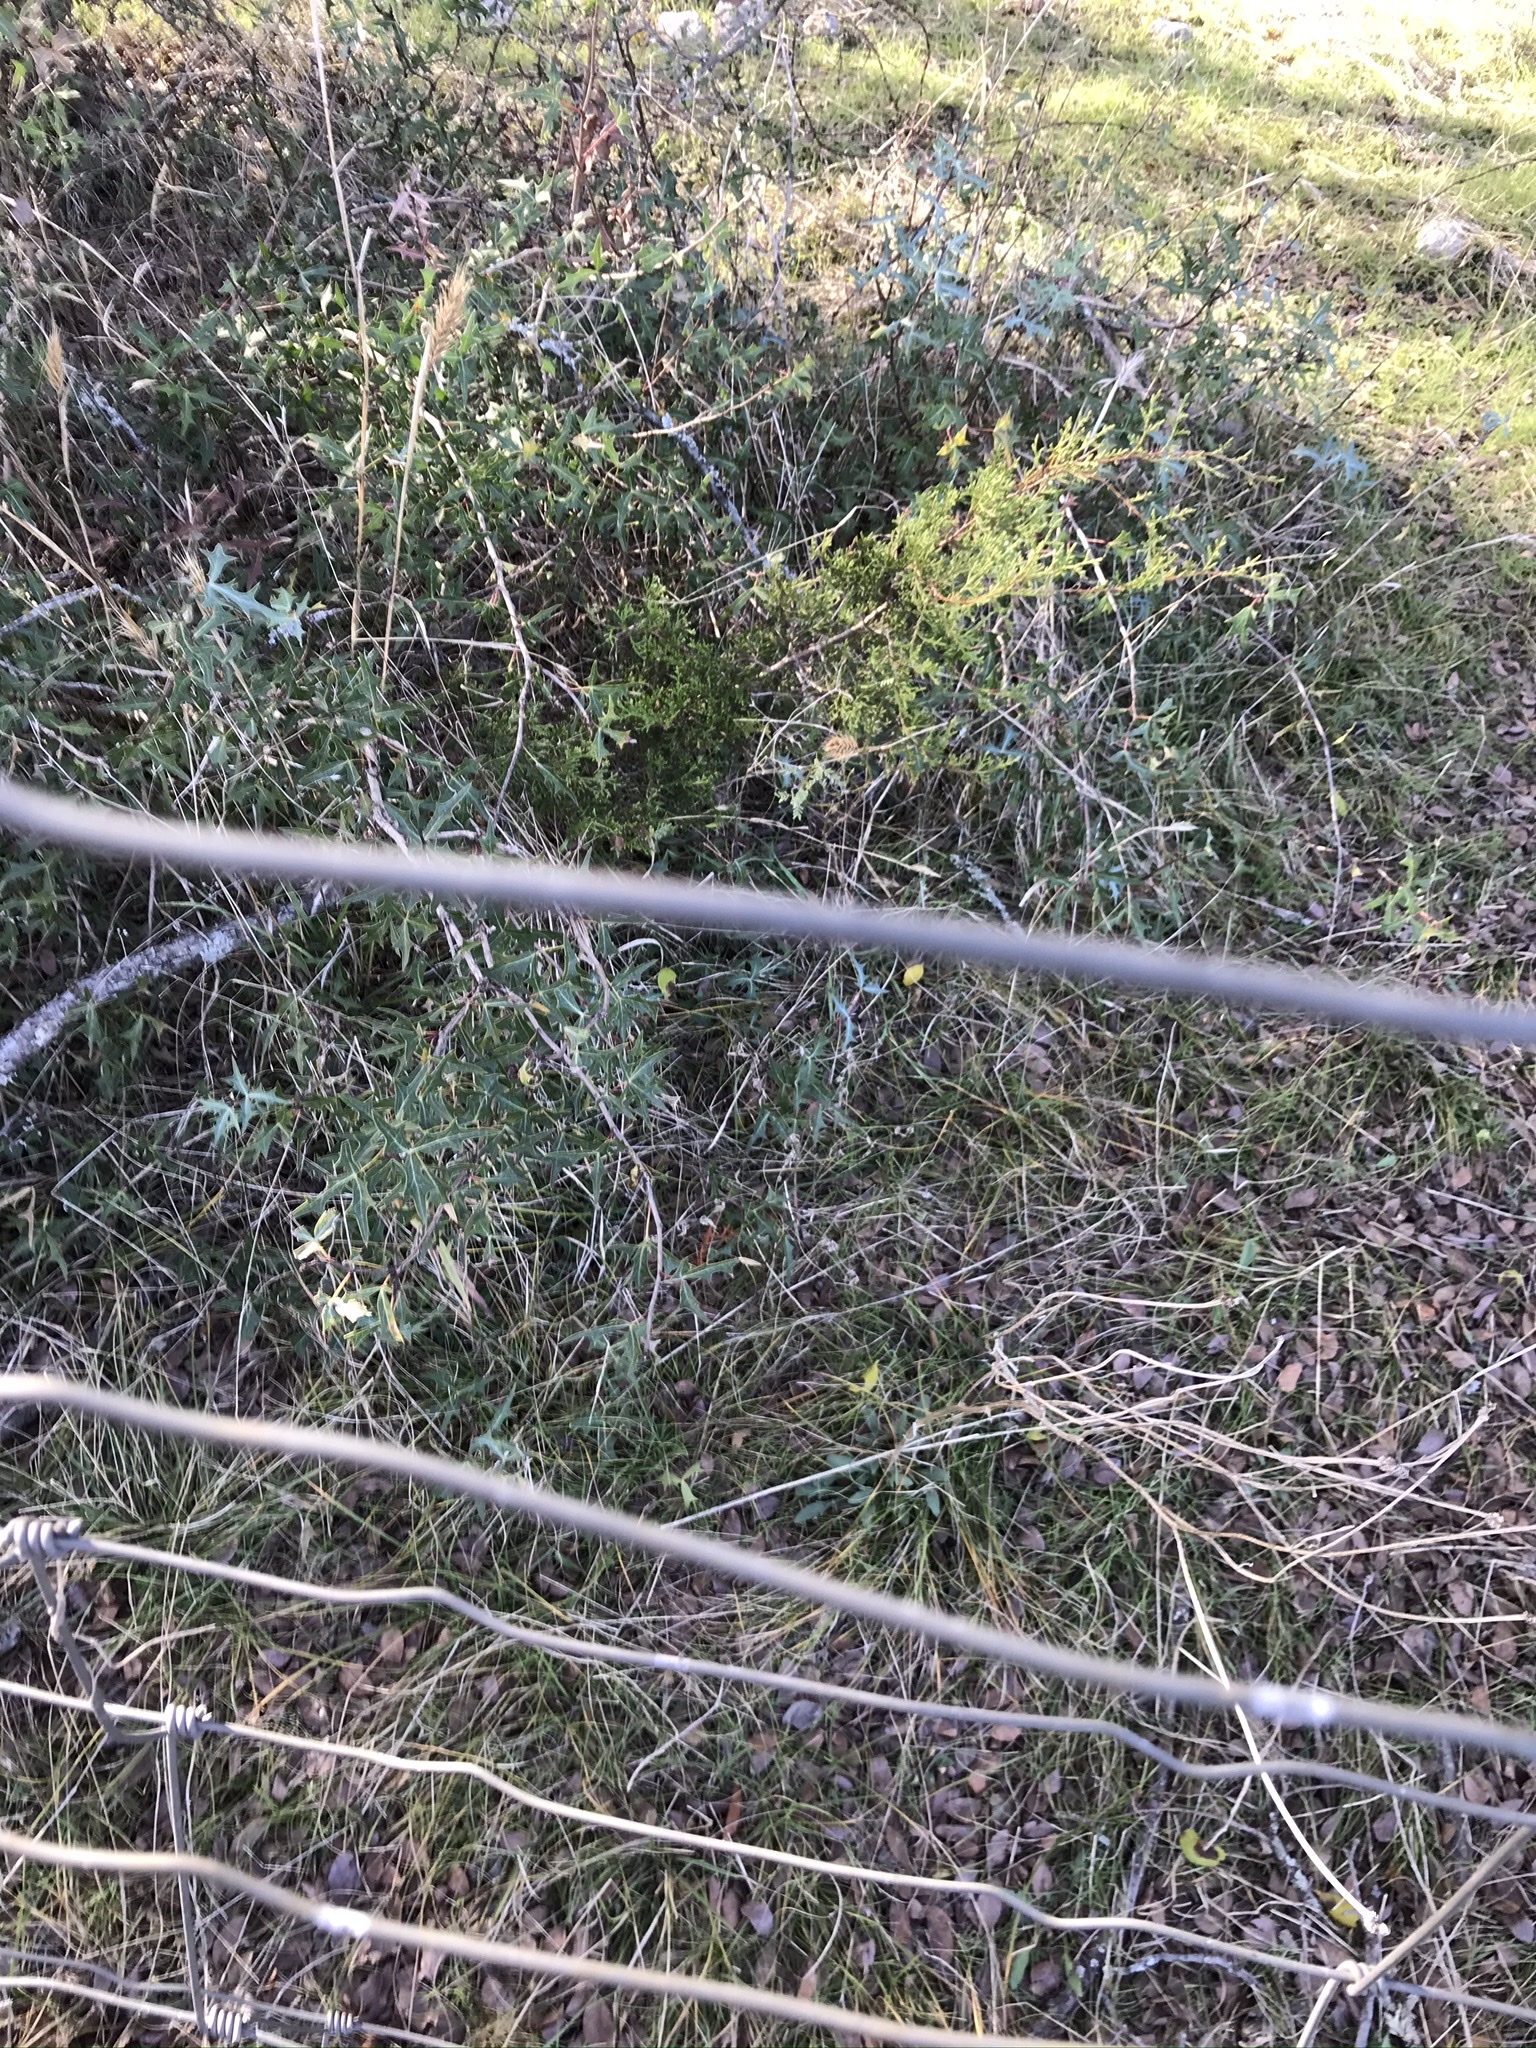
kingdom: Plantae
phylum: Tracheophyta
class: Magnoliopsida
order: Ranunculales
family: Berberidaceae
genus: Alloberberis
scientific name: Alloberberis trifoliolata
